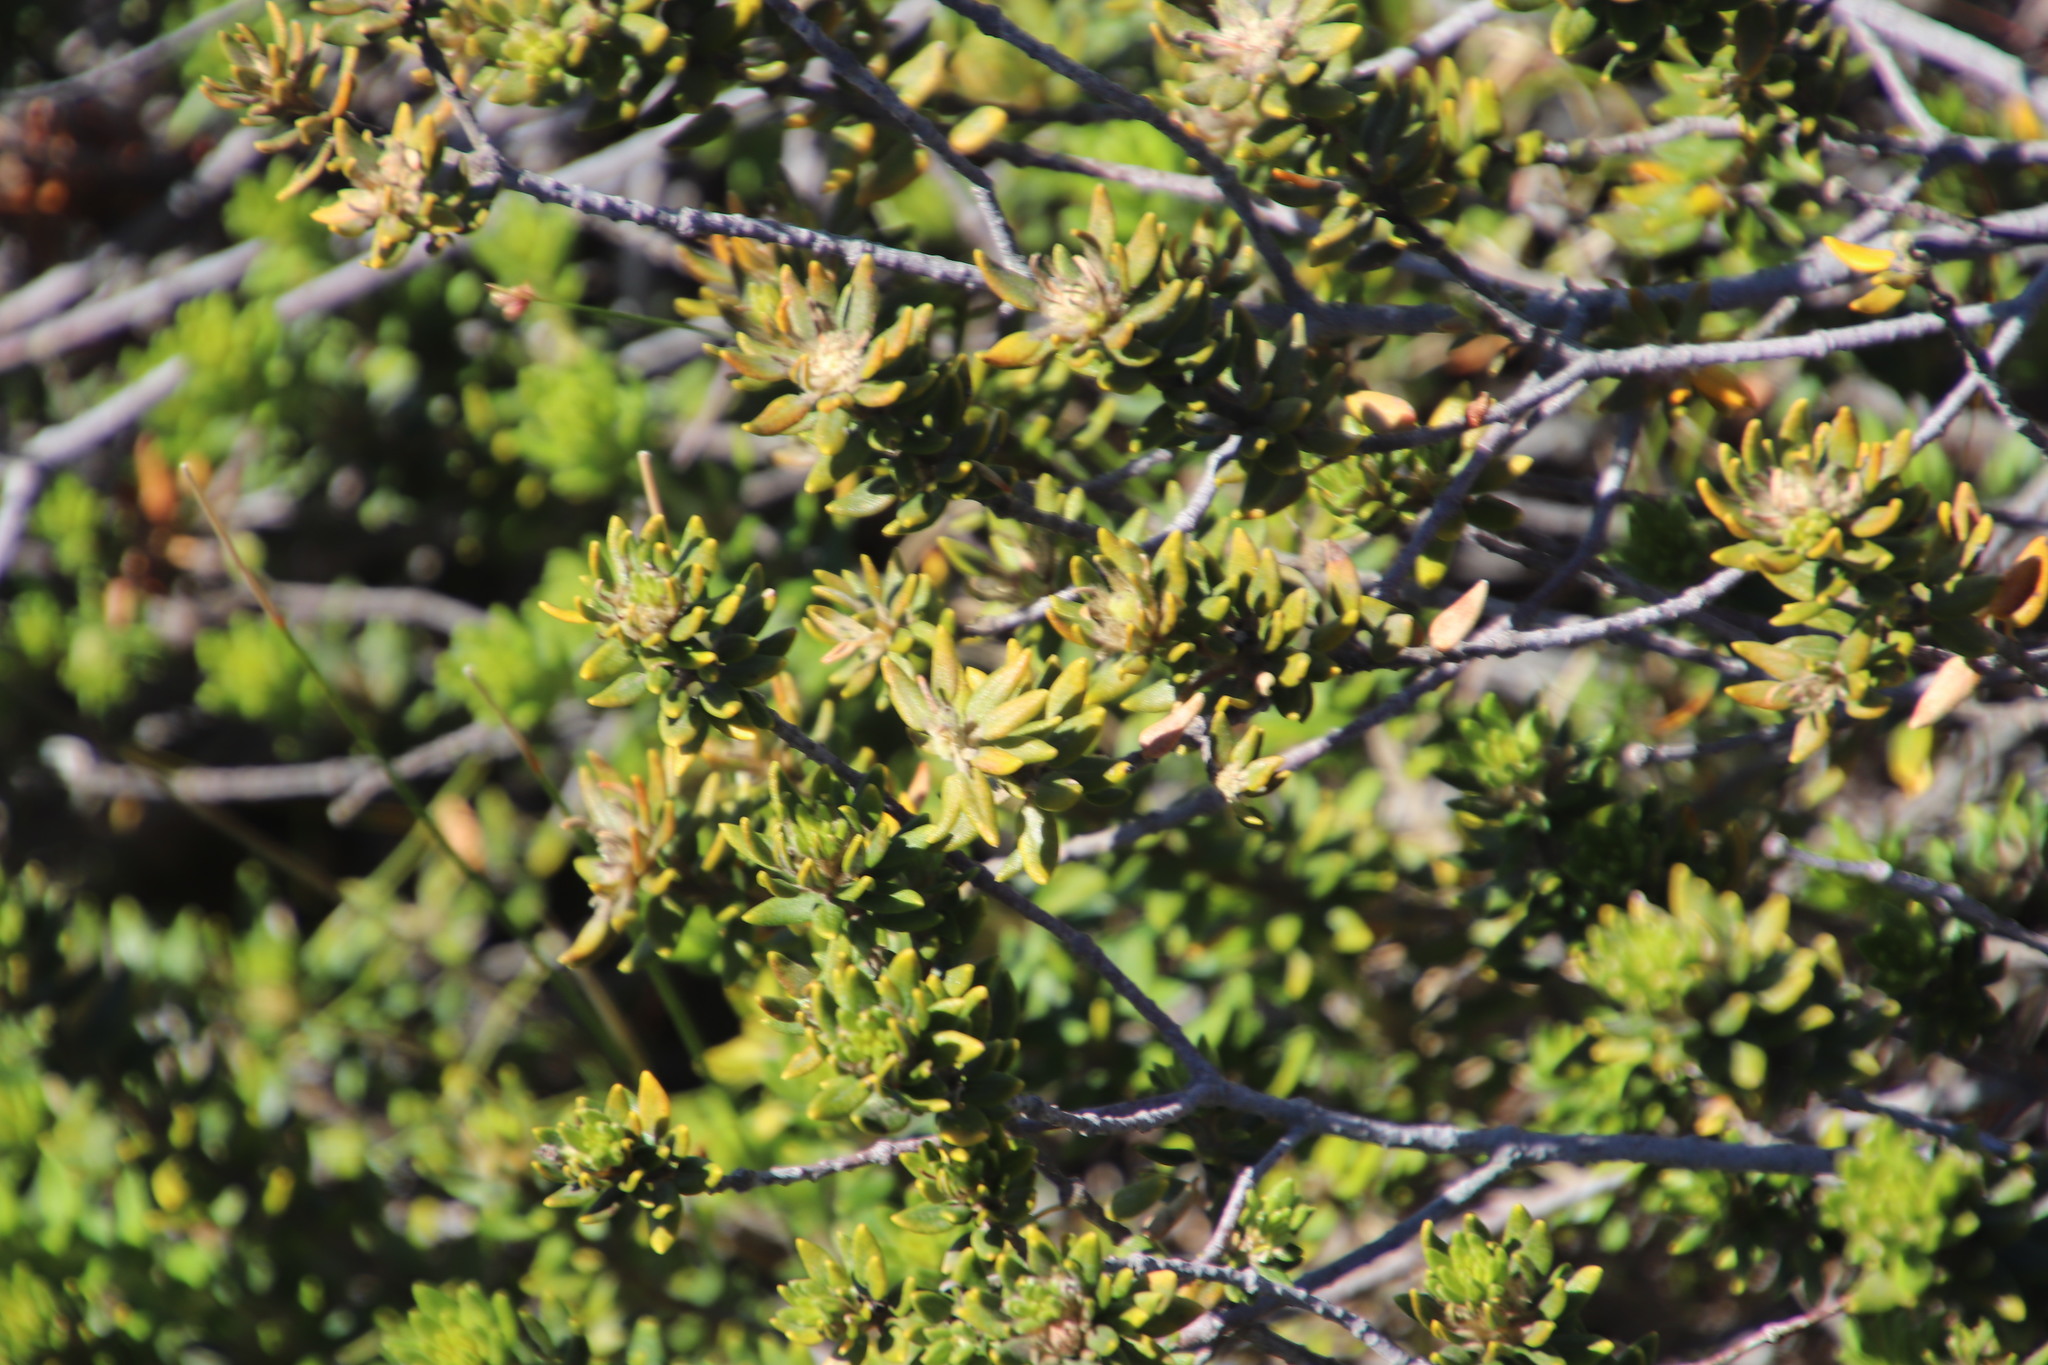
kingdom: Plantae
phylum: Tracheophyta
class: Magnoliopsida
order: Rosales
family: Rhamnaceae
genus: Phylica
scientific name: Phylica dioica
